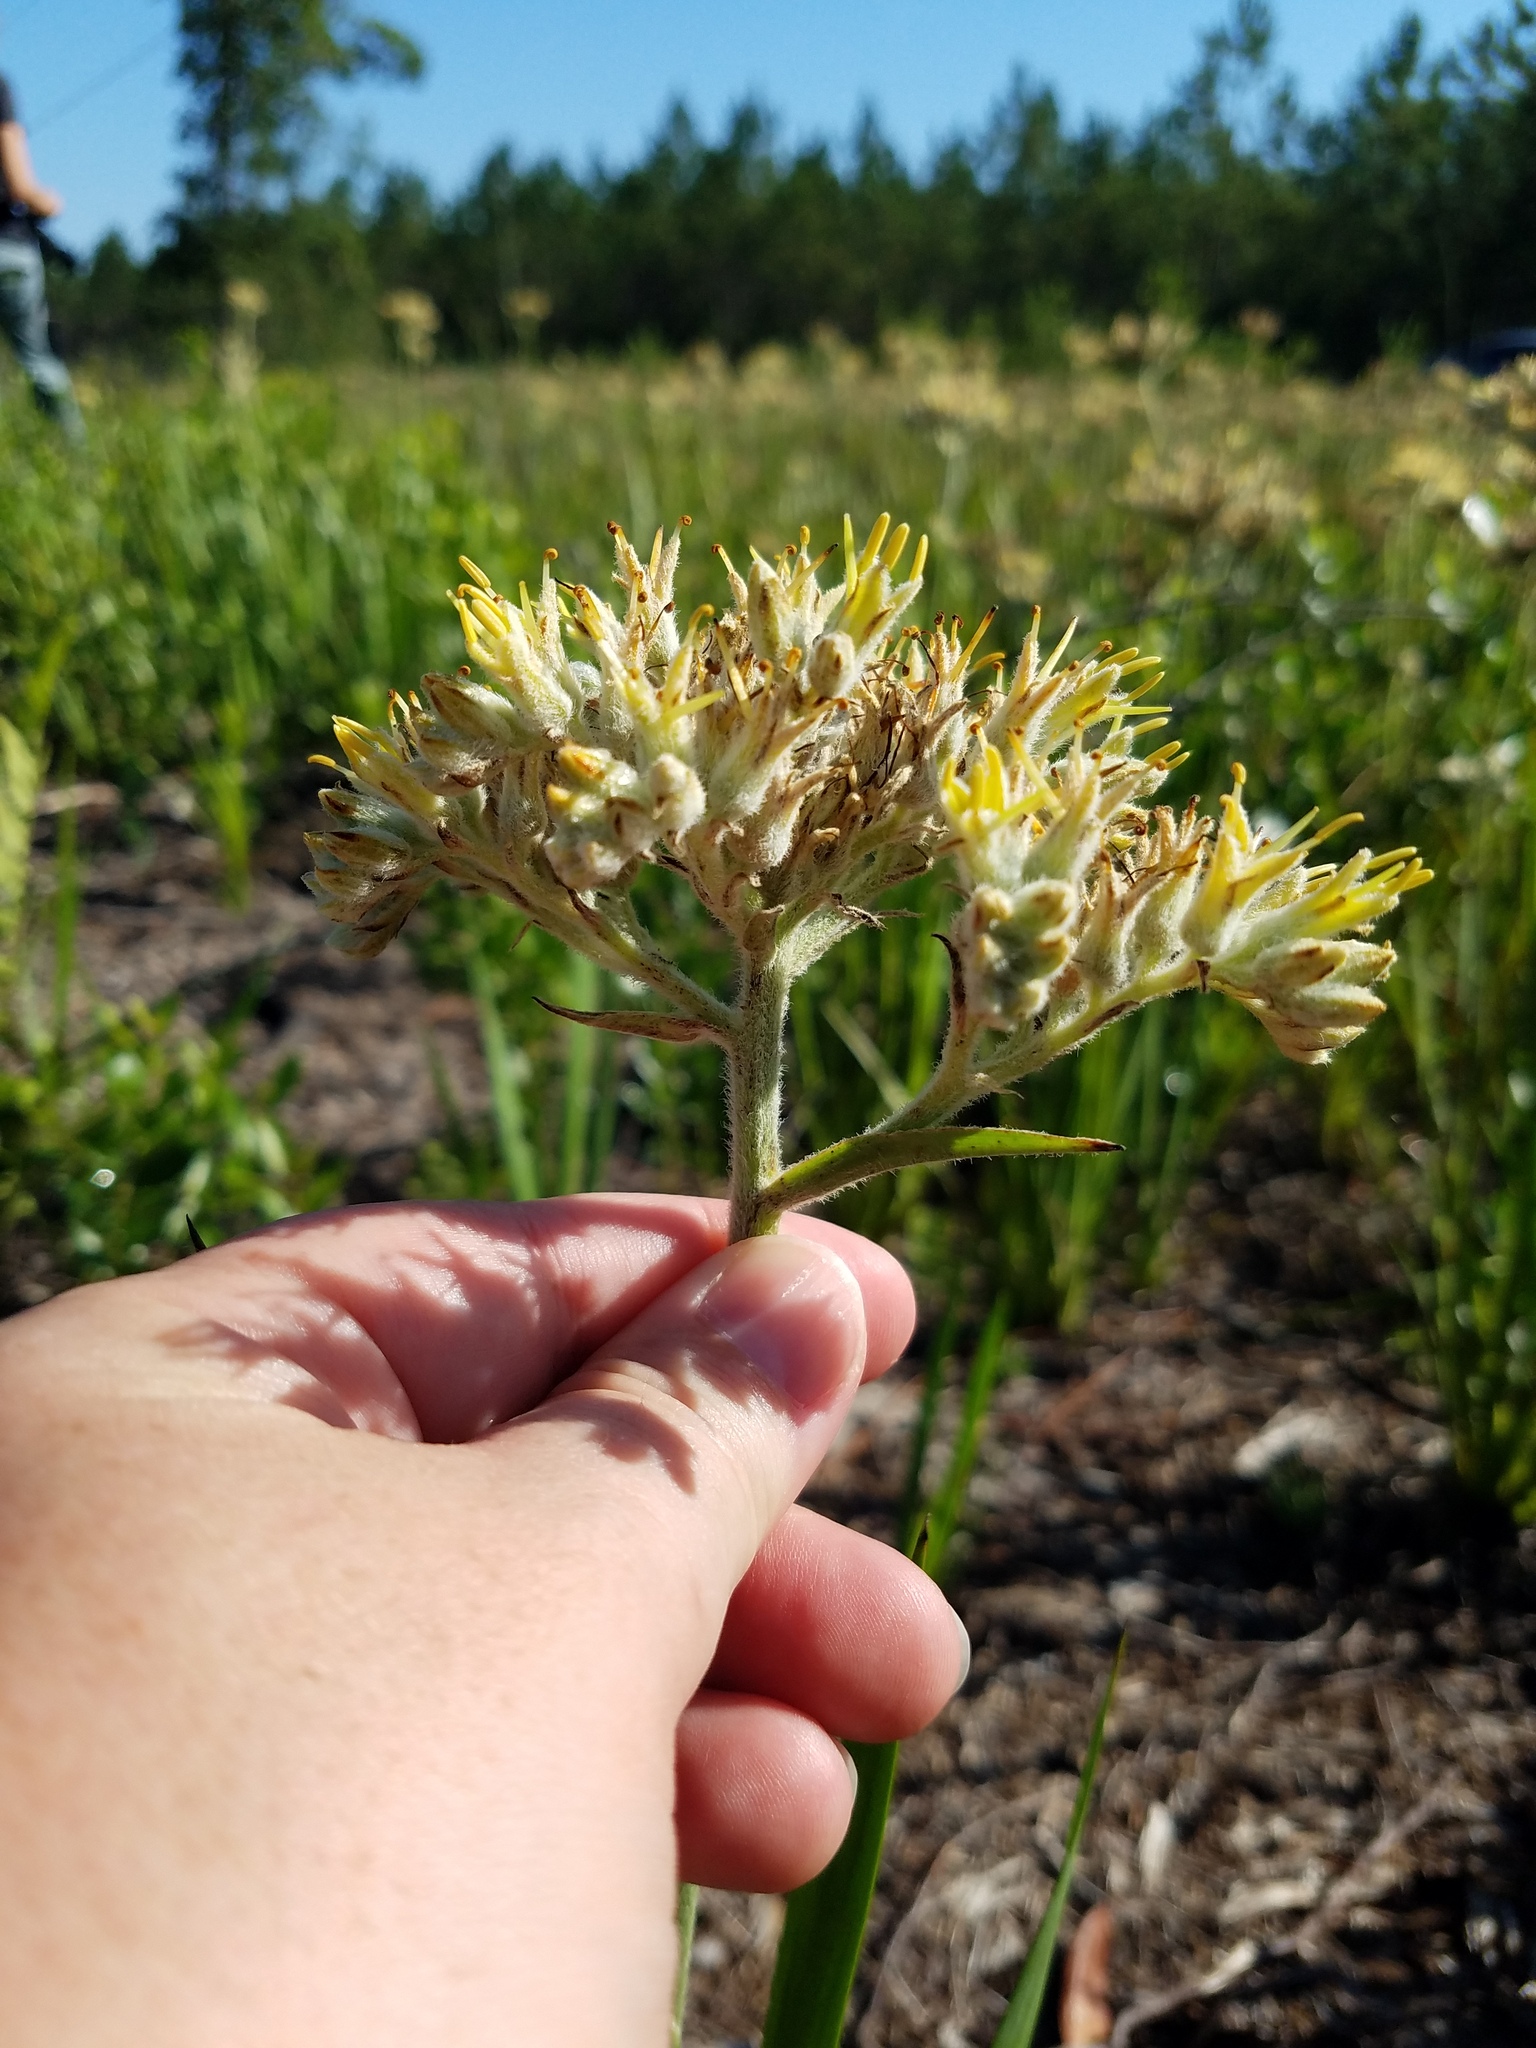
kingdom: Plantae
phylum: Tracheophyta
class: Liliopsida
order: Commelinales
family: Haemodoraceae
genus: Lachnanthes
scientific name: Lachnanthes caroliana
